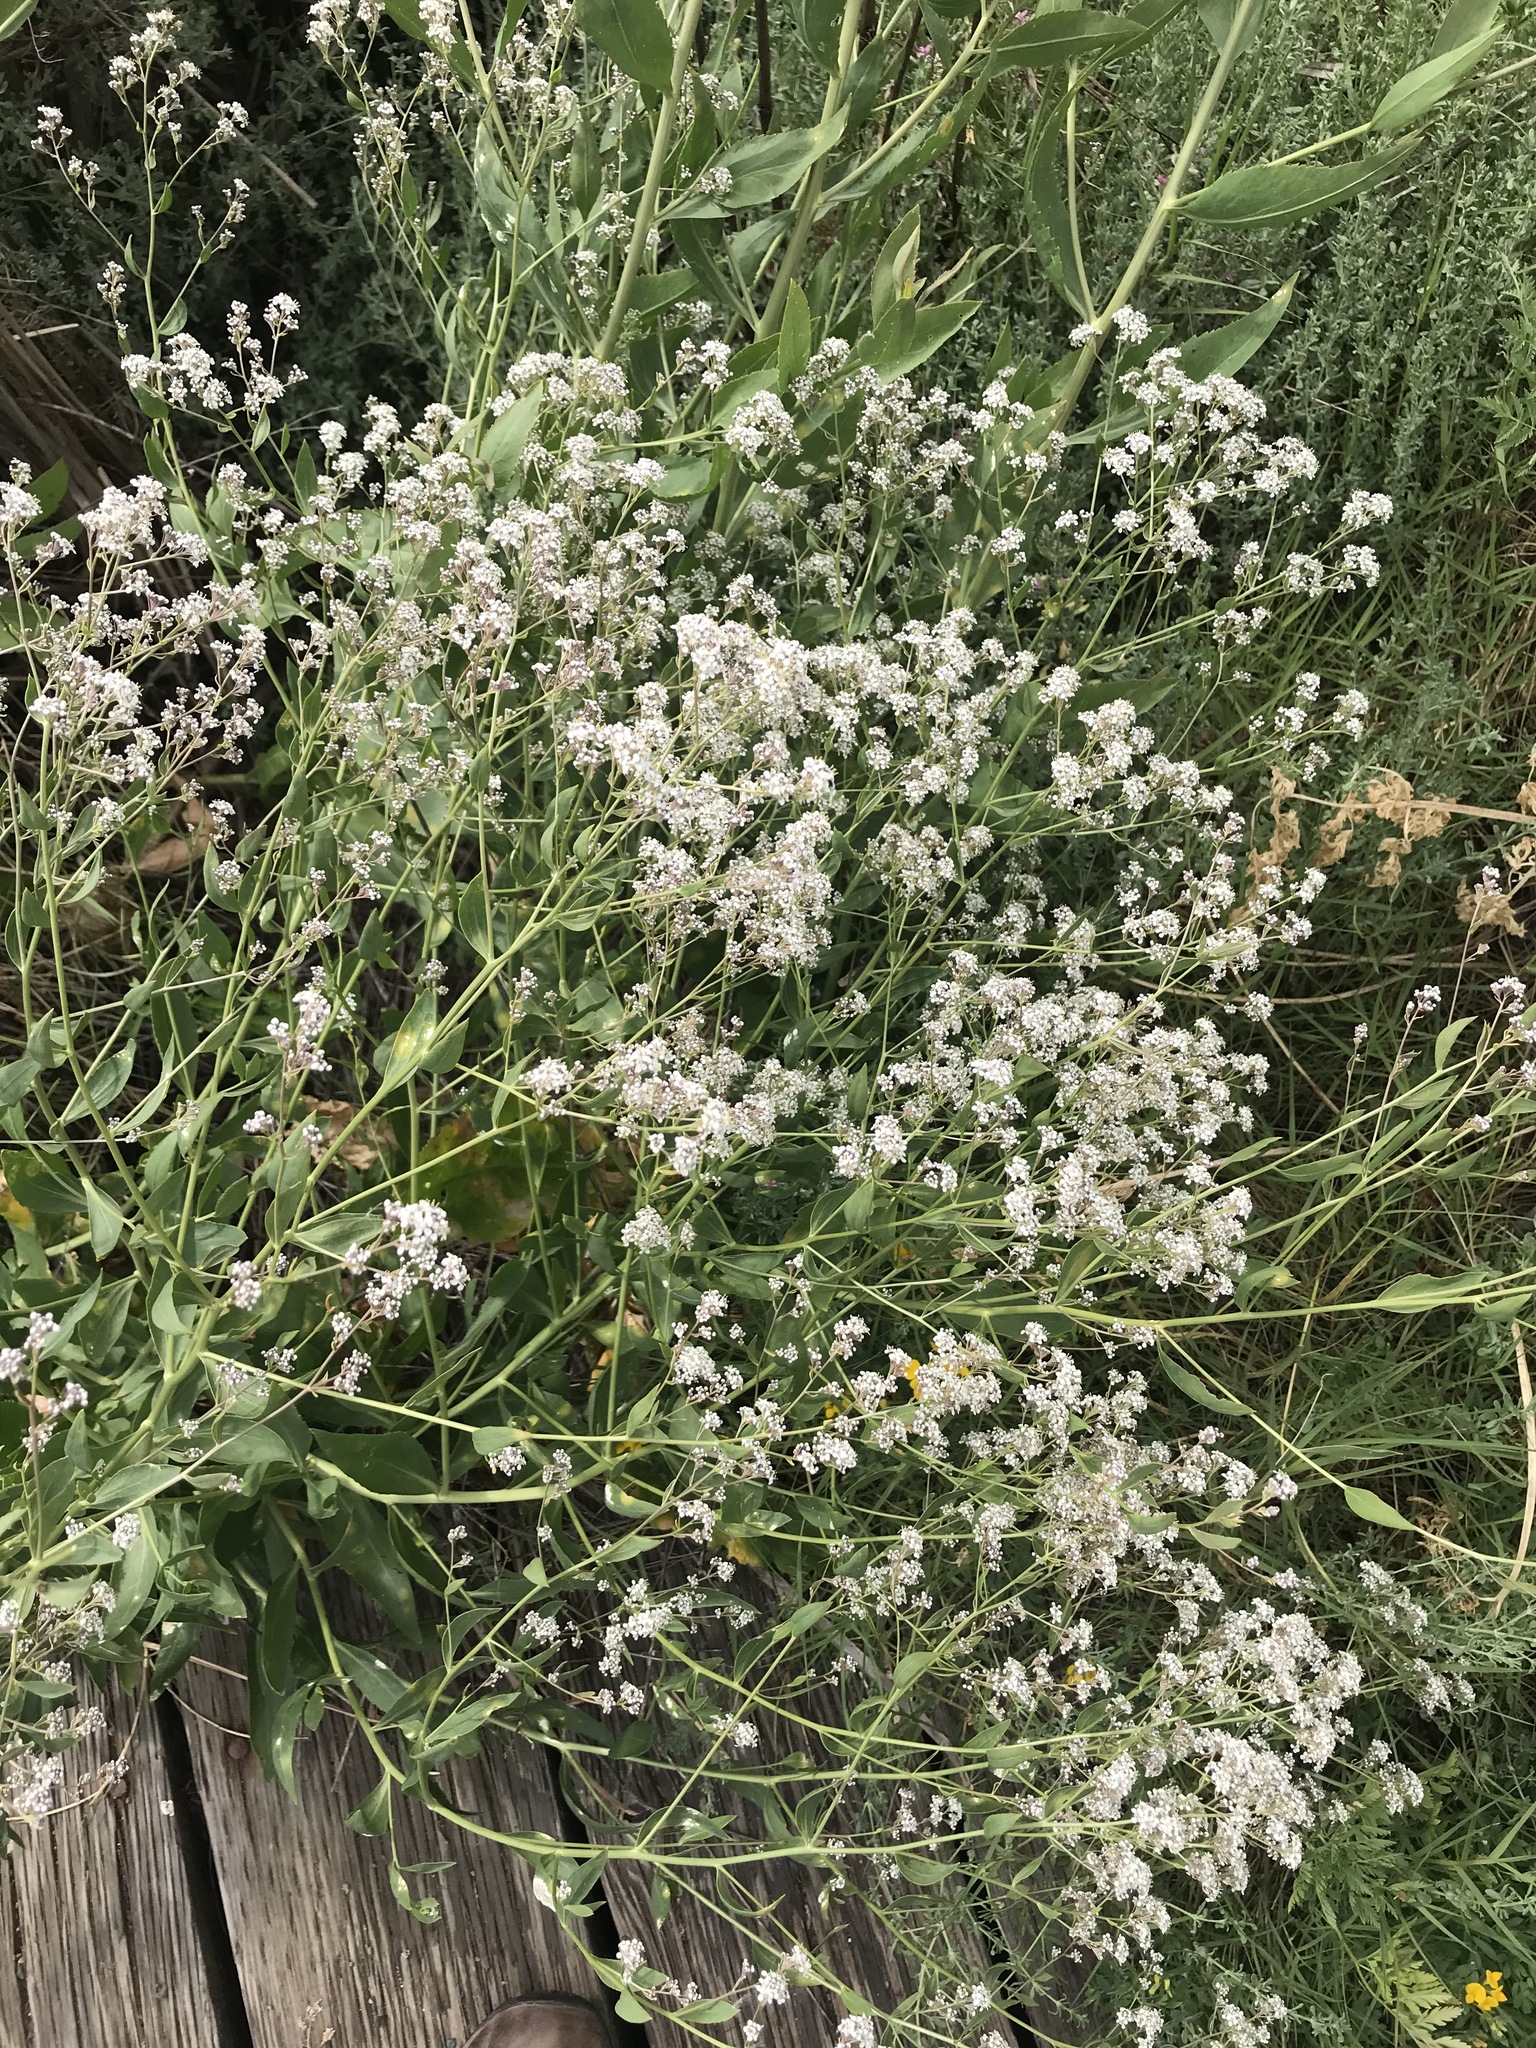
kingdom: Plantae
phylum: Tracheophyta
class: Magnoliopsida
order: Brassicales
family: Brassicaceae
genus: Lepidium
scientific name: Lepidium latifolium
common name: Dittander
